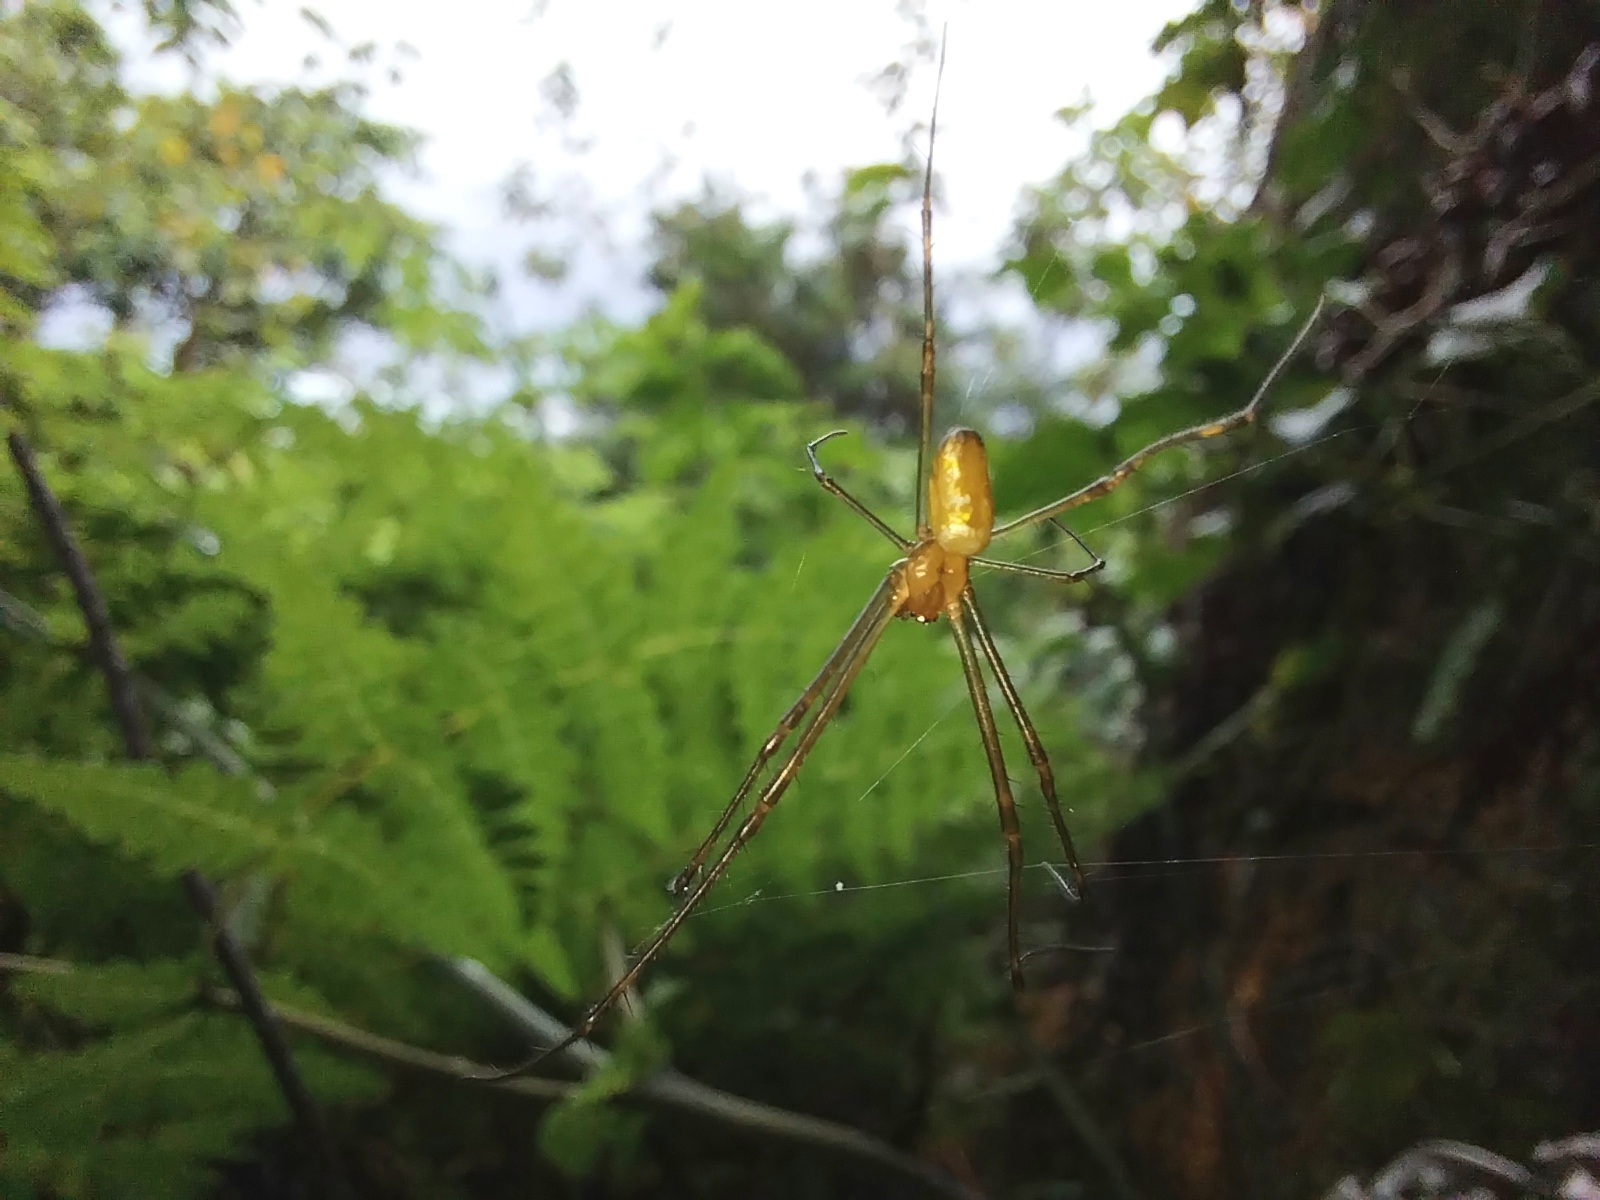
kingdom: Animalia
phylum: Arthropoda
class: Arachnida
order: Araneae
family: Tetragnathidae
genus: Leucauge
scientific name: Leucauge granulata
